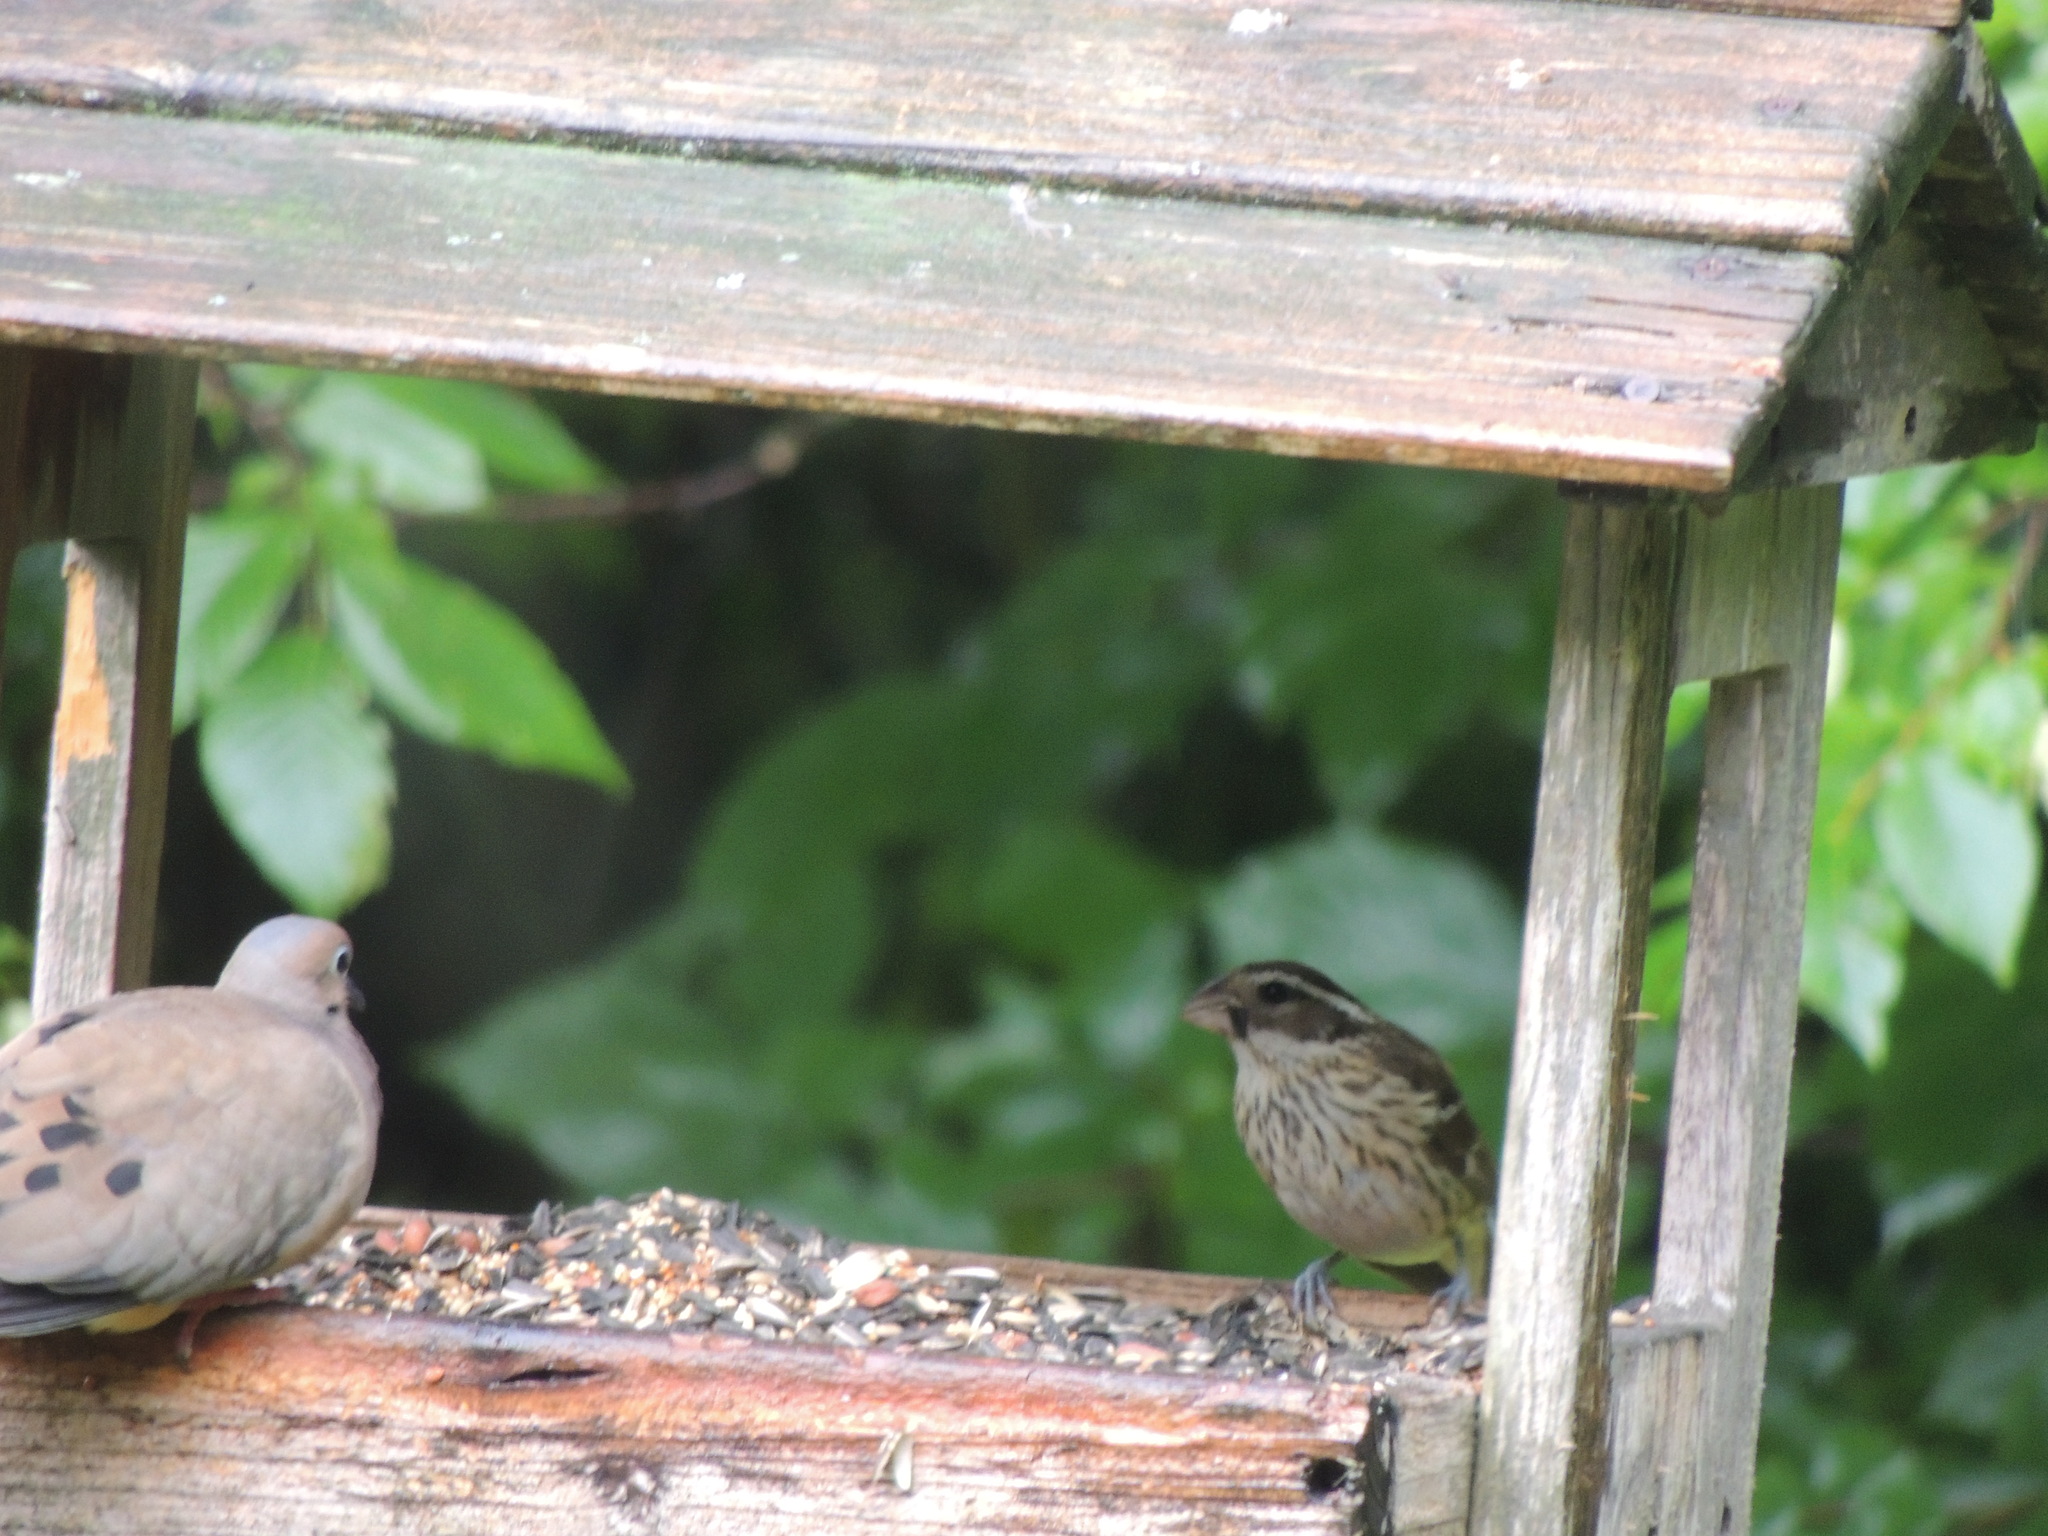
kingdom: Animalia
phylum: Chordata
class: Aves
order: Passeriformes
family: Cardinalidae
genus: Pheucticus
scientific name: Pheucticus ludovicianus
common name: Rose-breasted grosbeak
